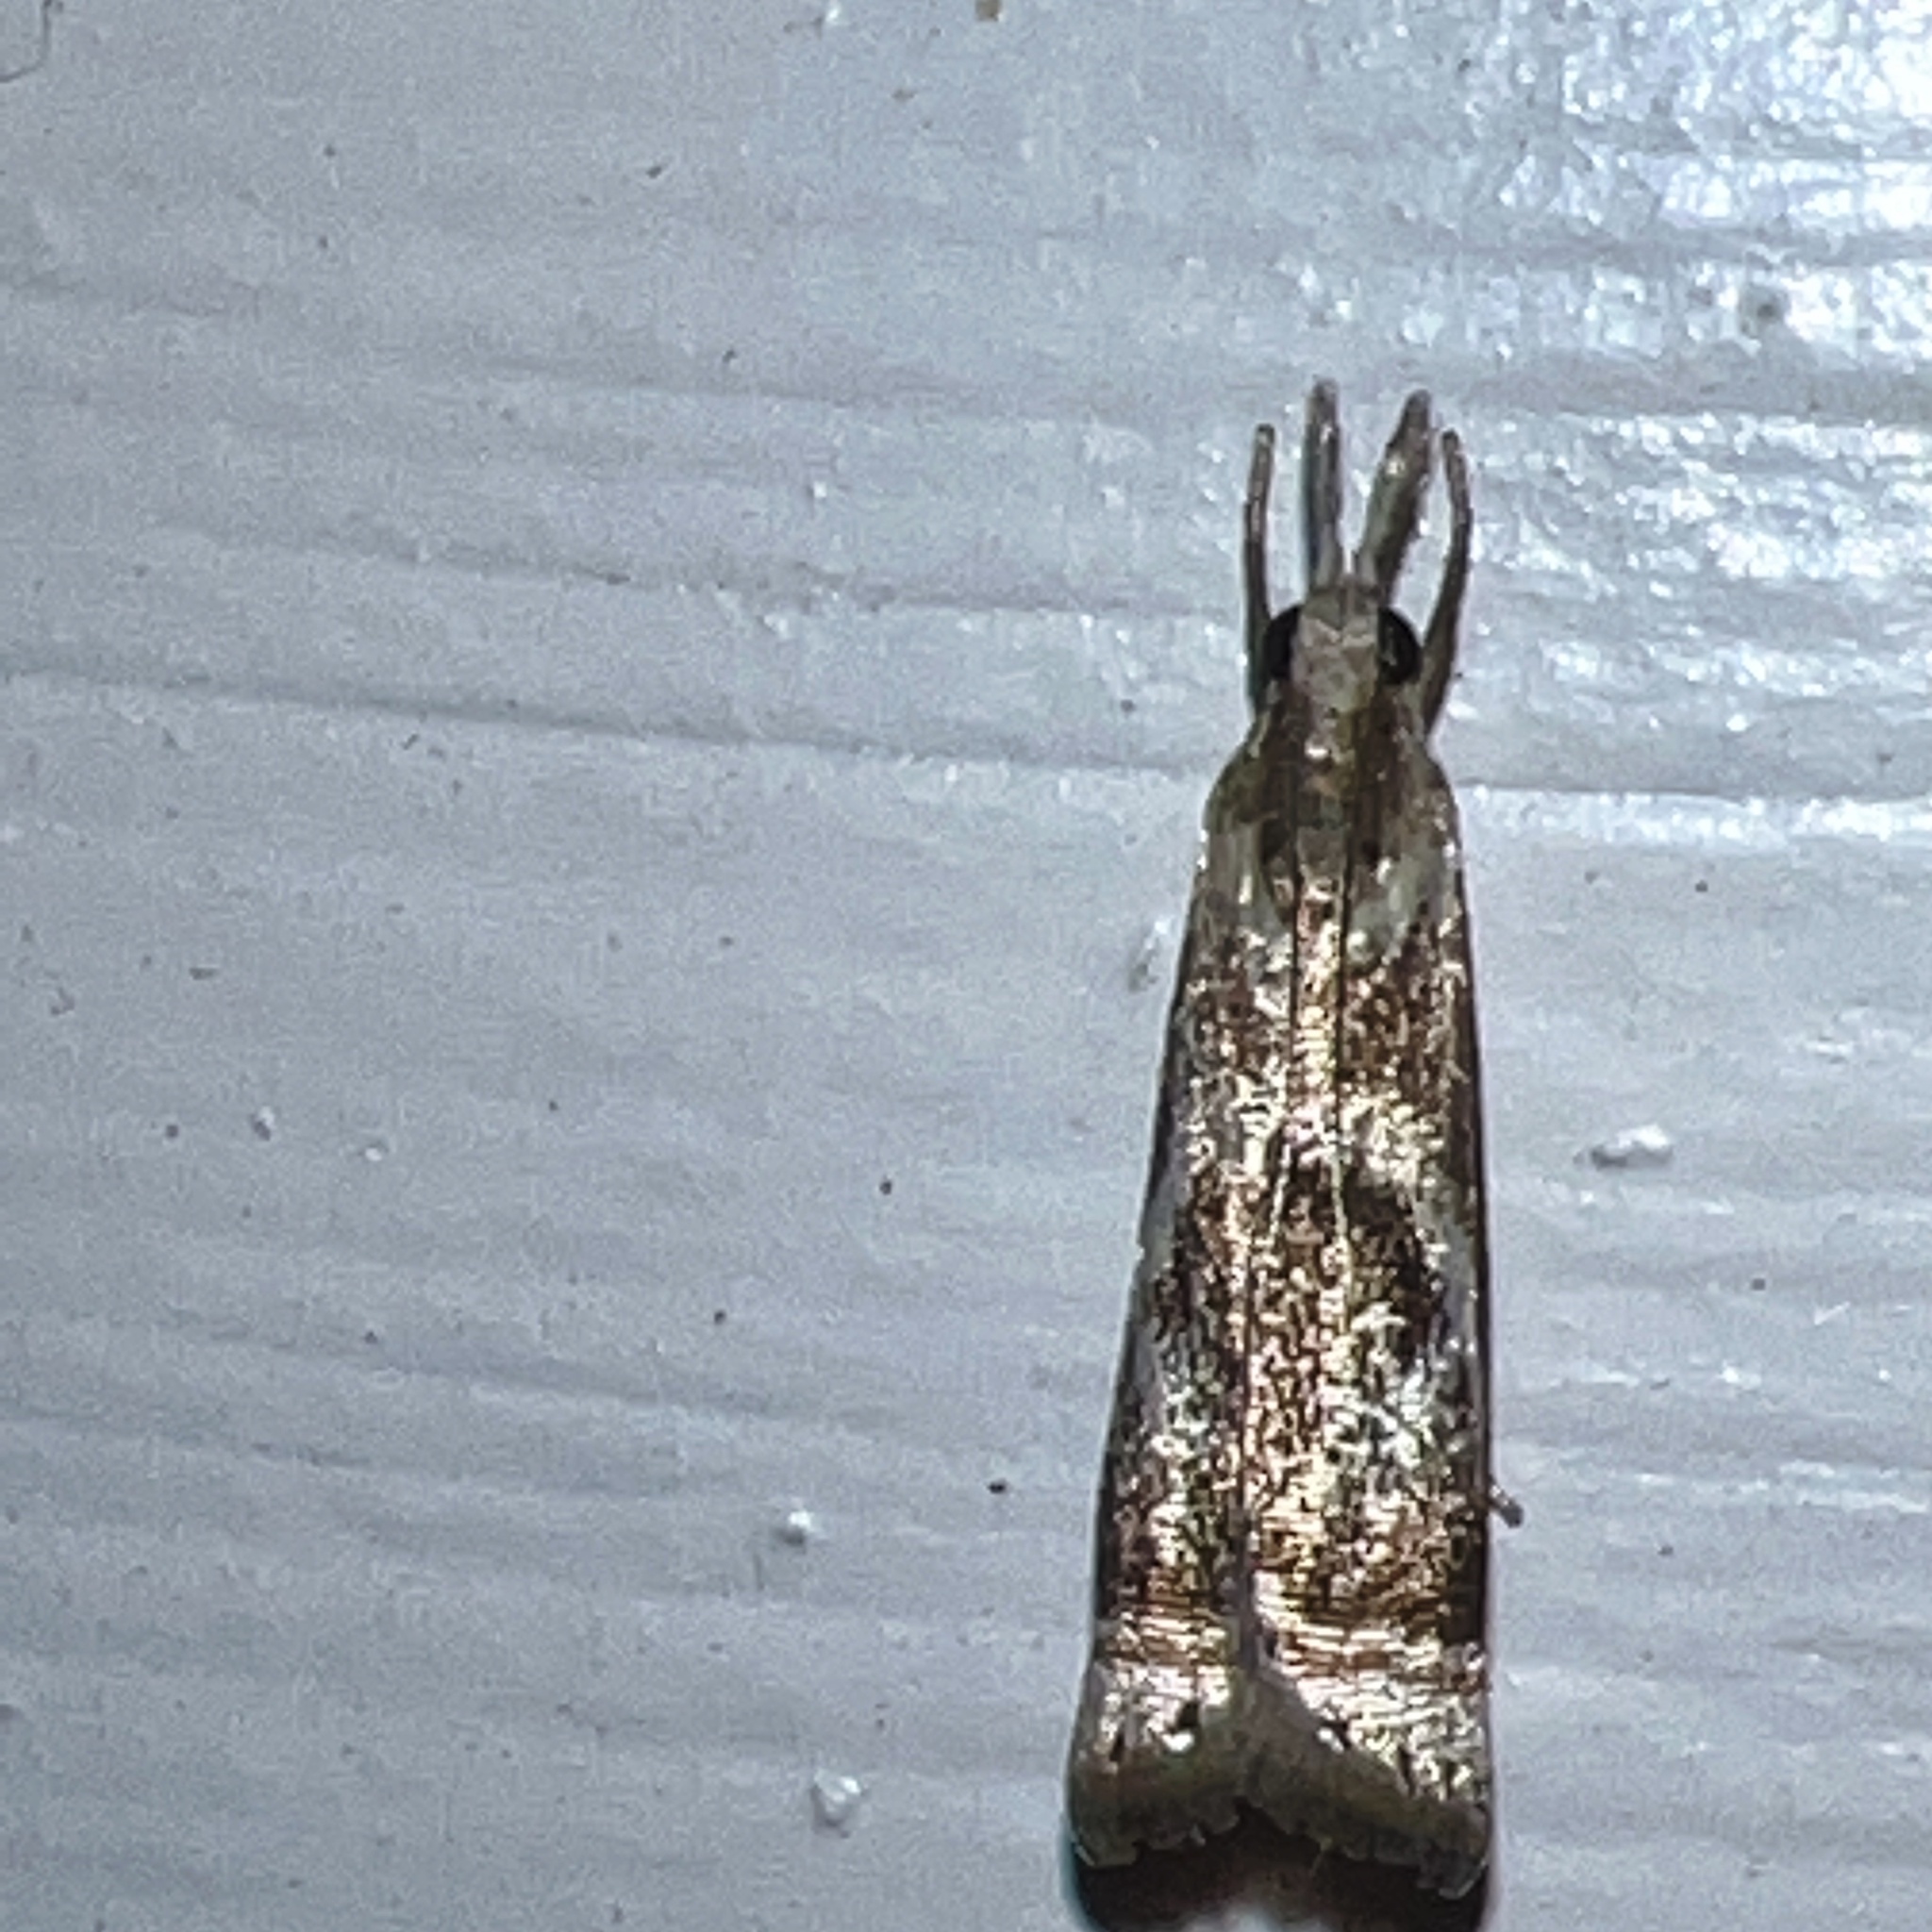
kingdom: Animalia
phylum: Arthropoda
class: Insecta
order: Lepidoptera
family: Crambidae
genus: Microcrambus
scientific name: Microcrambus elegans
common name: Elegant grass-veneer
